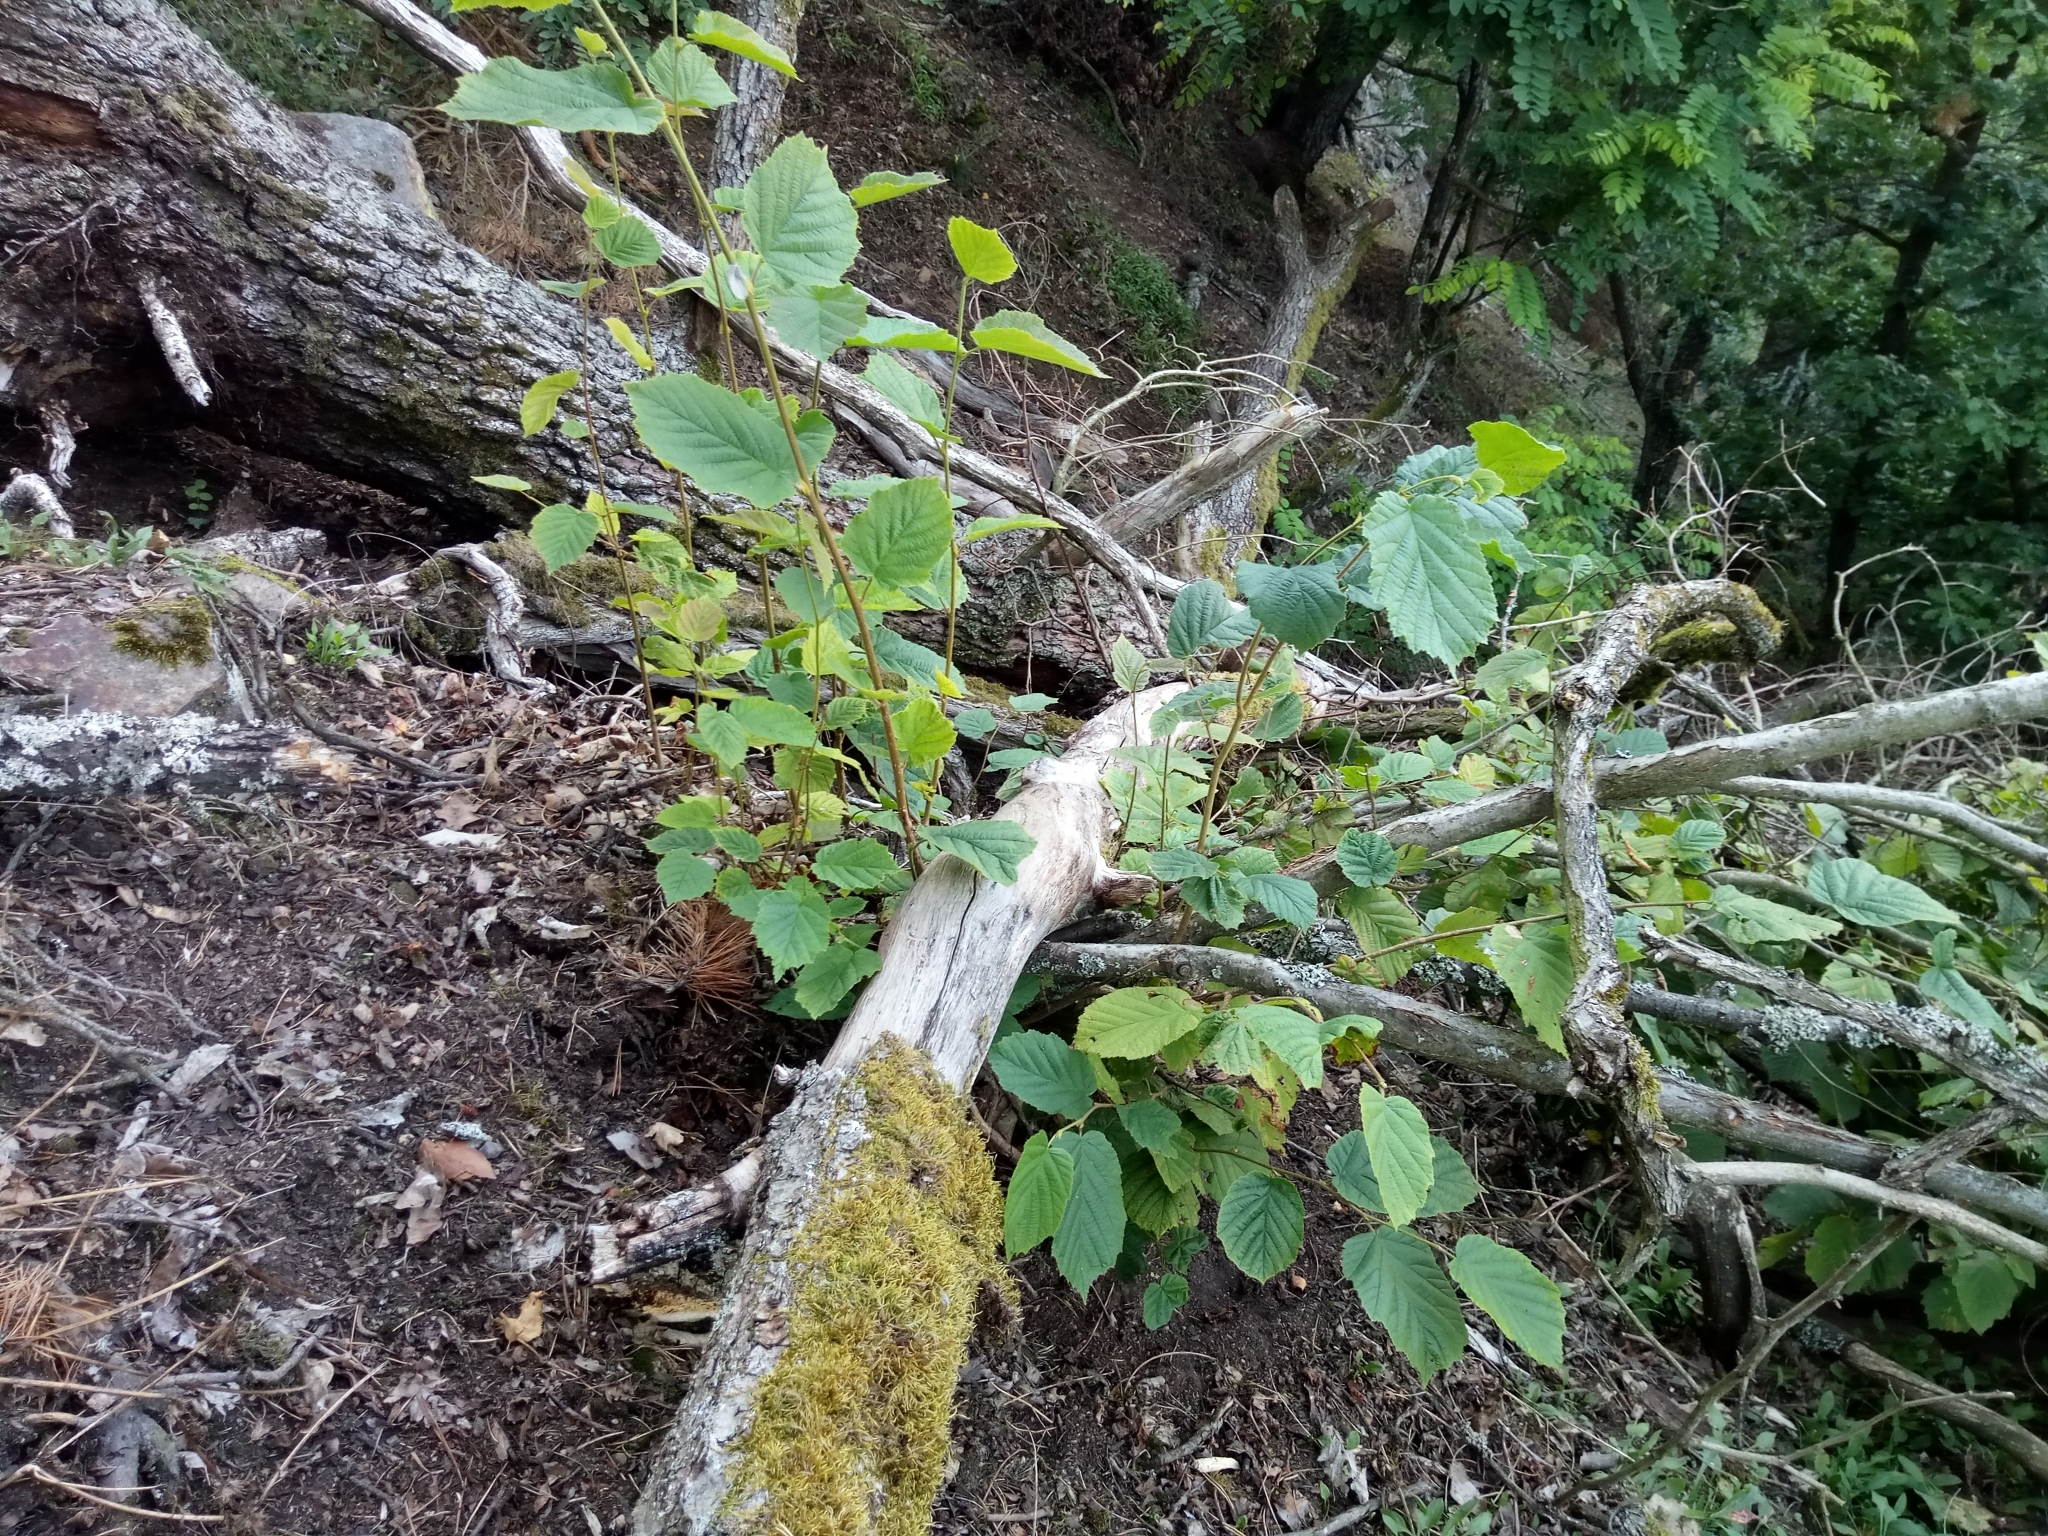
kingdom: Plantae
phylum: Tracheophyta
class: Magnoliopsida
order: Fagales
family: Betulaceae
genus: Corylus
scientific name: Corylus avellana
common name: European hazel
